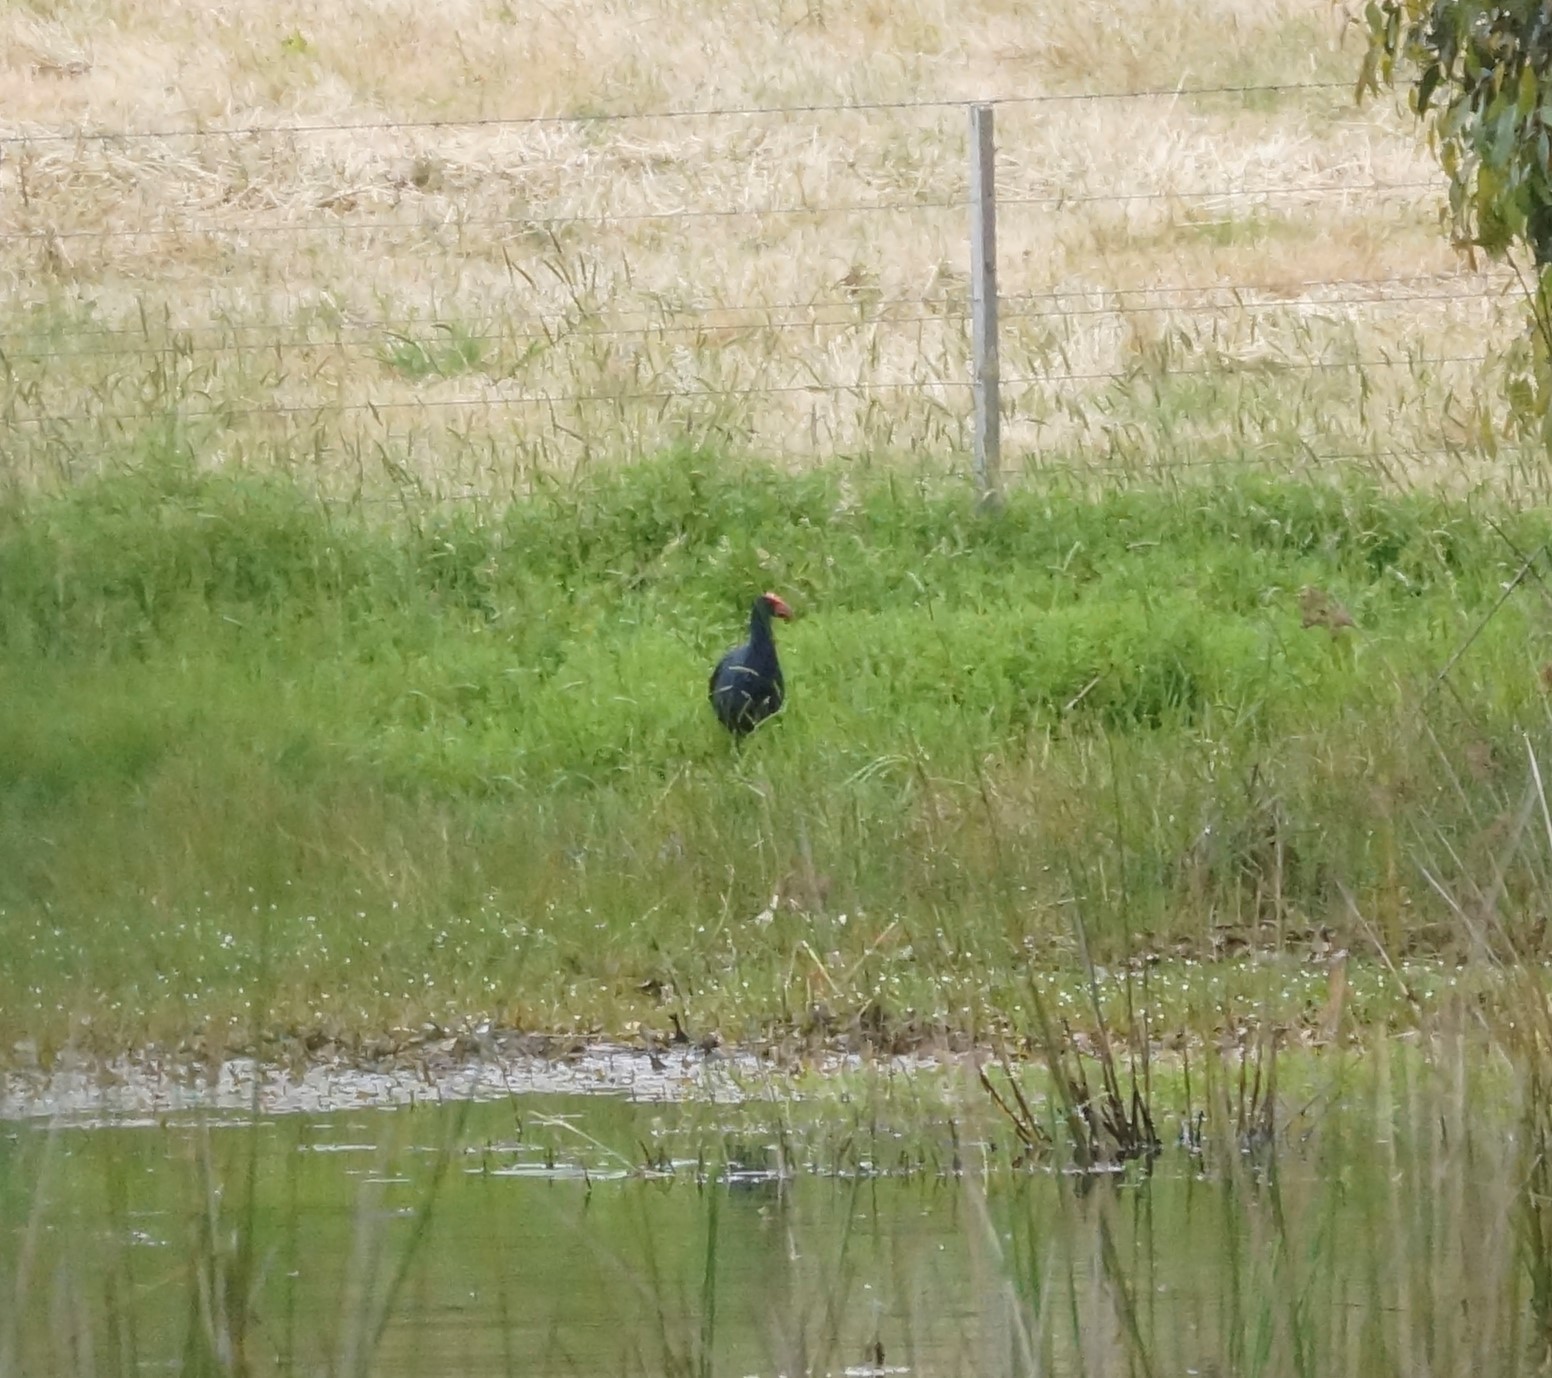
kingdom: Animalia
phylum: Chordata
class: Aves
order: Gruiformes
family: Rallidae
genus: Porphyrio
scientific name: Porphyrio melanotus
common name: Australasian swamphen
